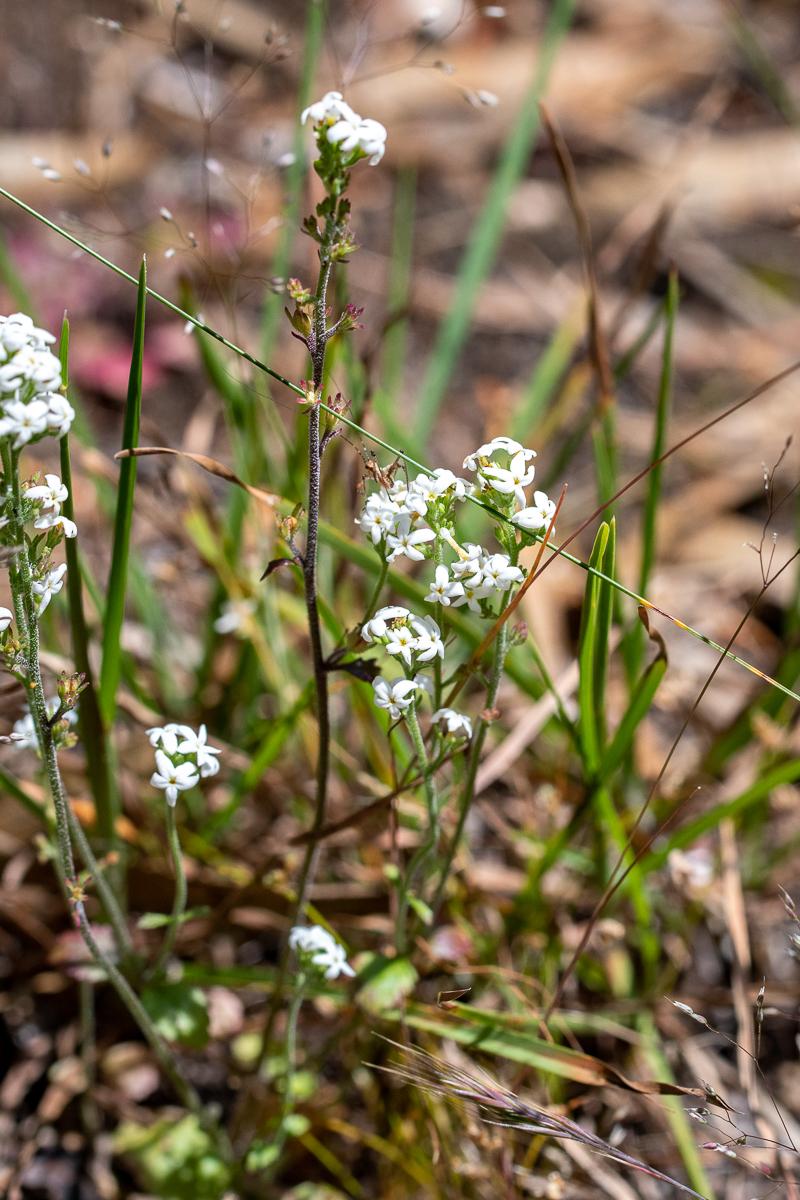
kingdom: Plantae
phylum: Tracheophyta
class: Magnoliopsida
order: Lamiales
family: Scrophulariaceae
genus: Manulea
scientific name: Manulea exigua
